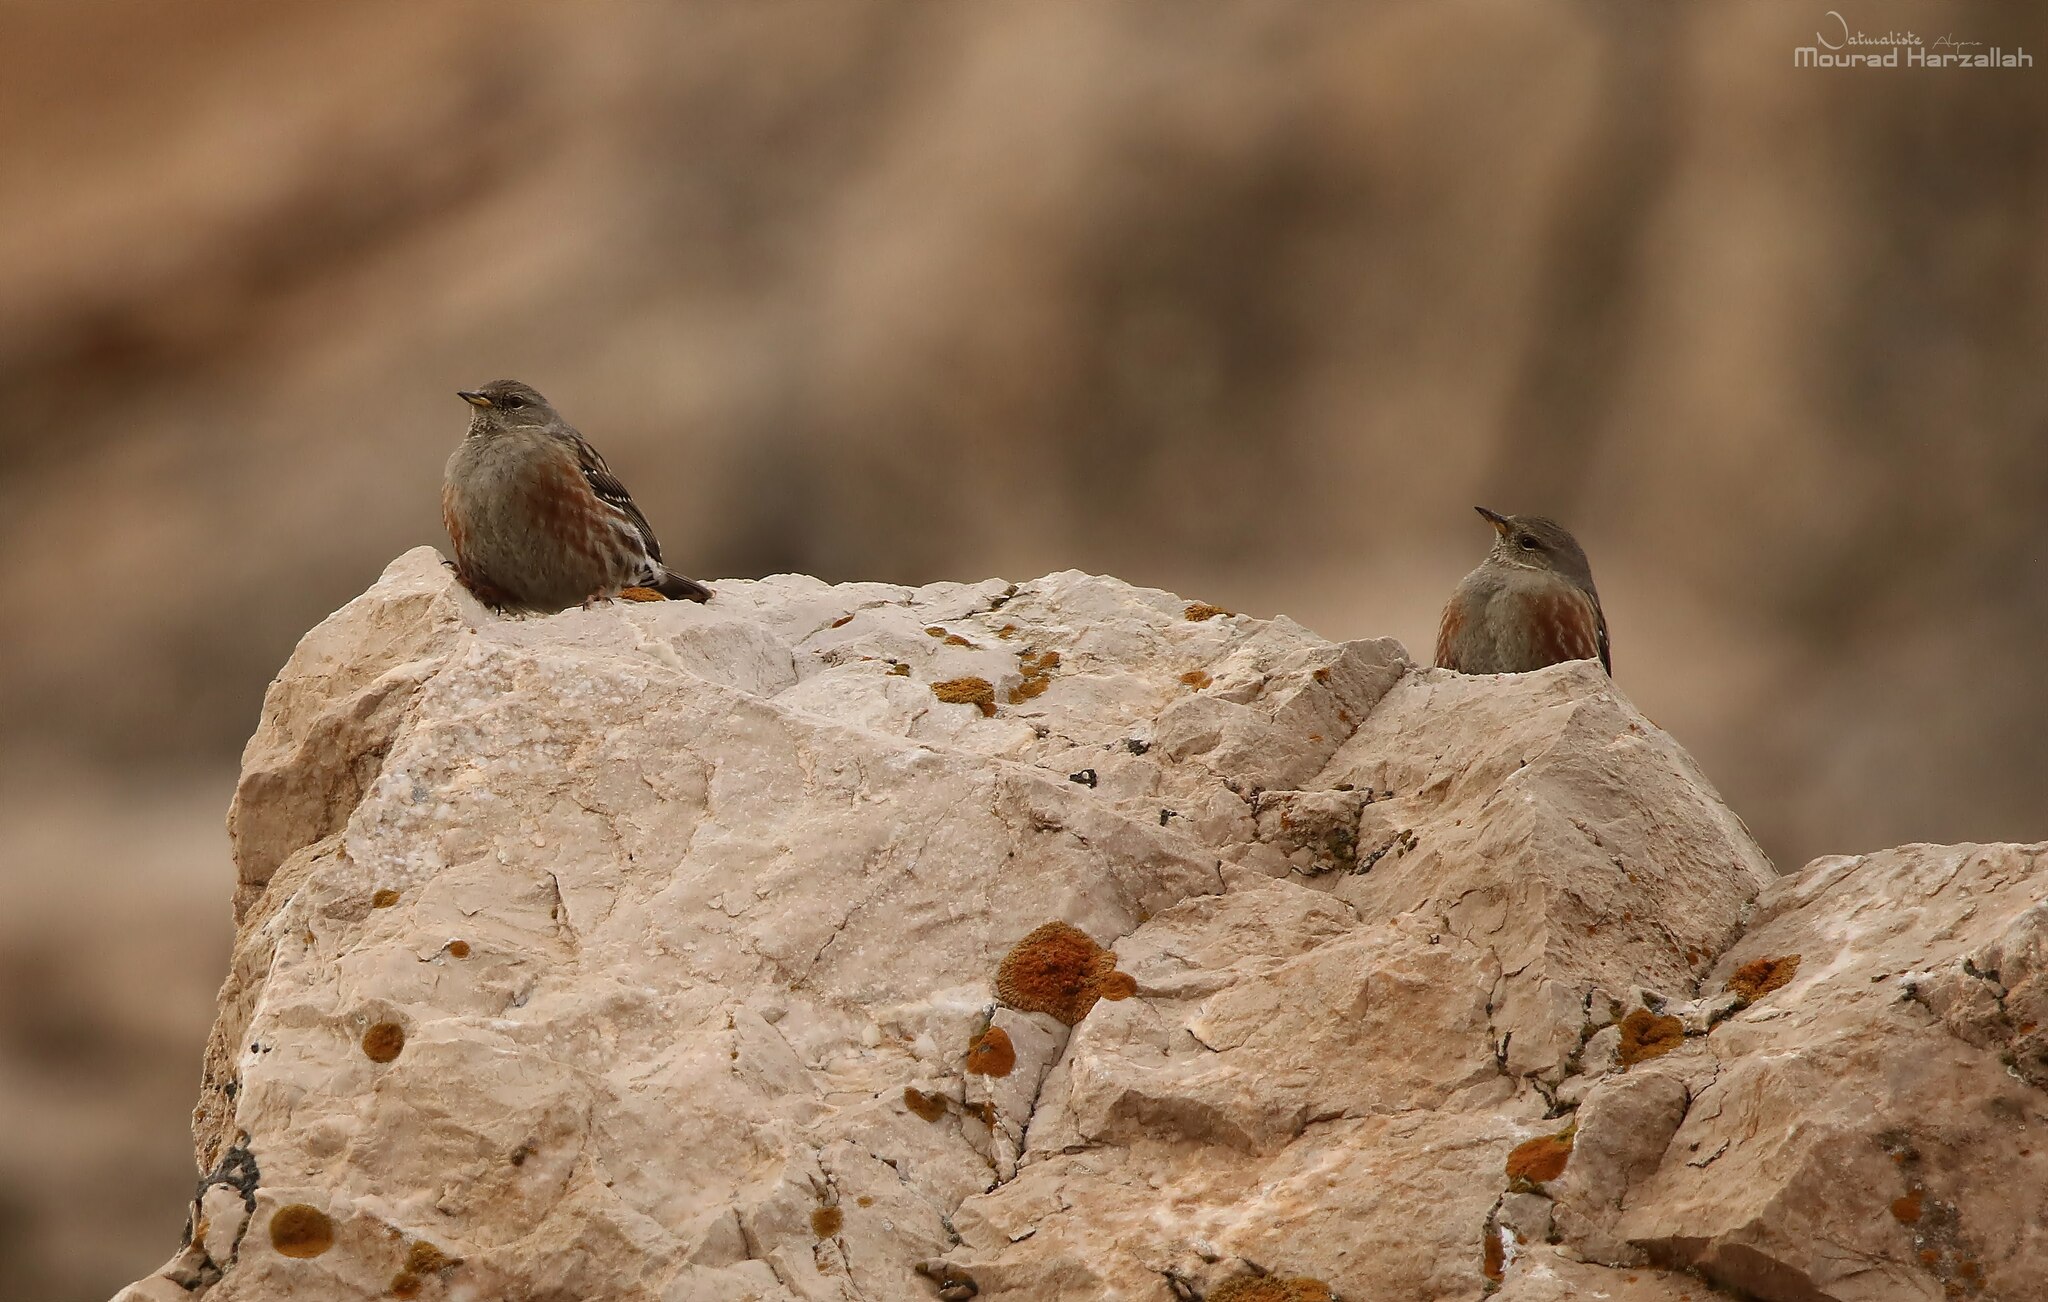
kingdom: Animalia
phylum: Chordata
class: Aves
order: Passeriformes
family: Prunellidae
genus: Prunella
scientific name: Prunella collaris
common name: Alpine accentor
